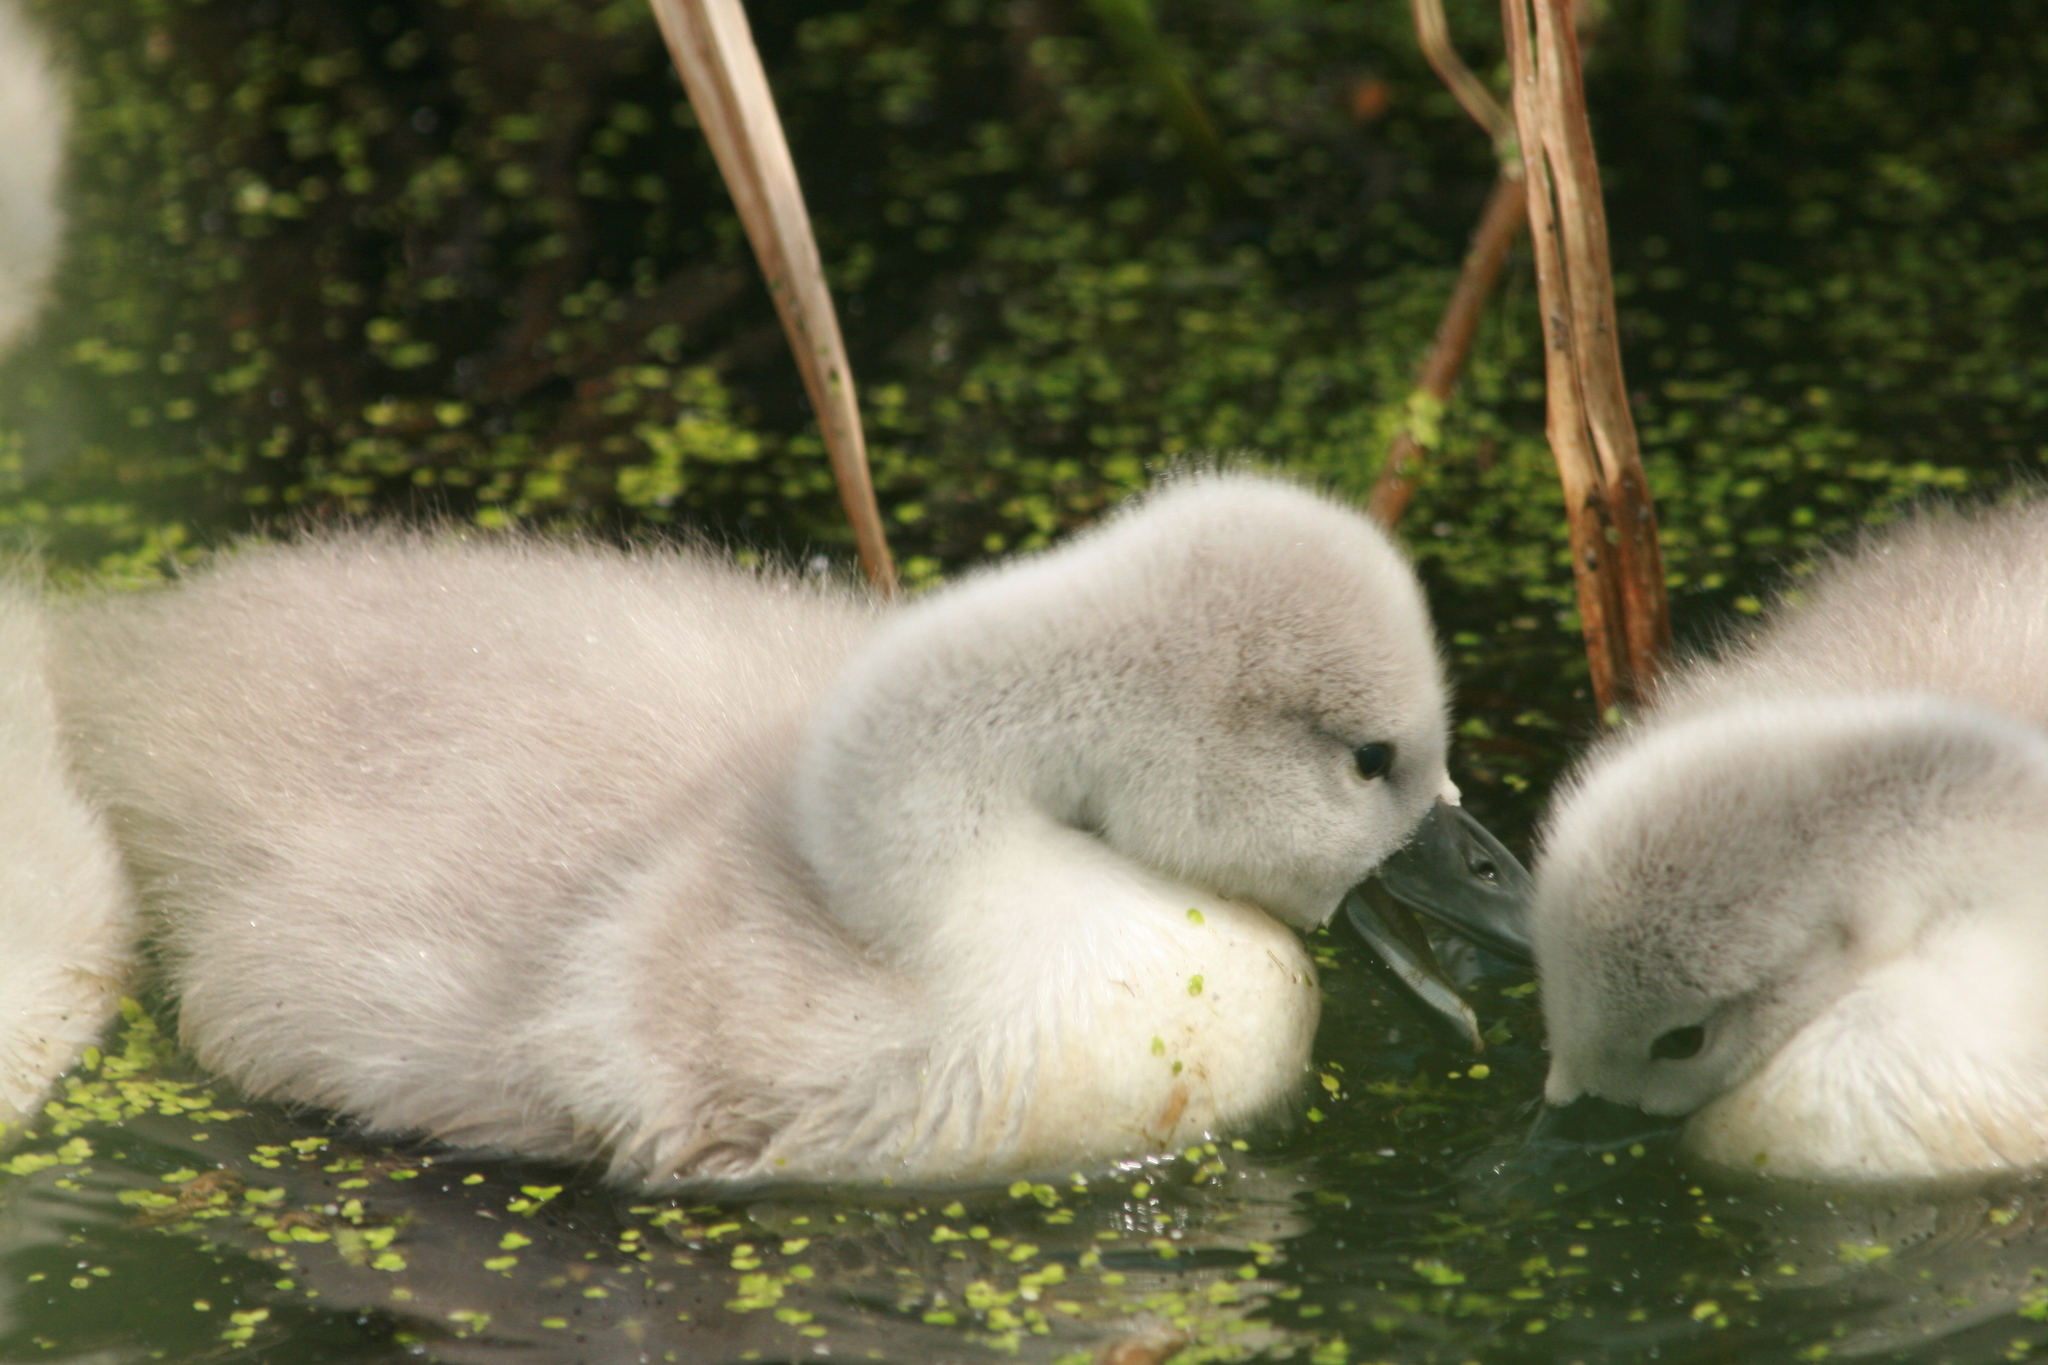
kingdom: Animalia
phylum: Chordata
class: Aves
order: Anseriformes
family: Anatidae
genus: Cygnus
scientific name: Cygnus olor
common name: Mute swan
